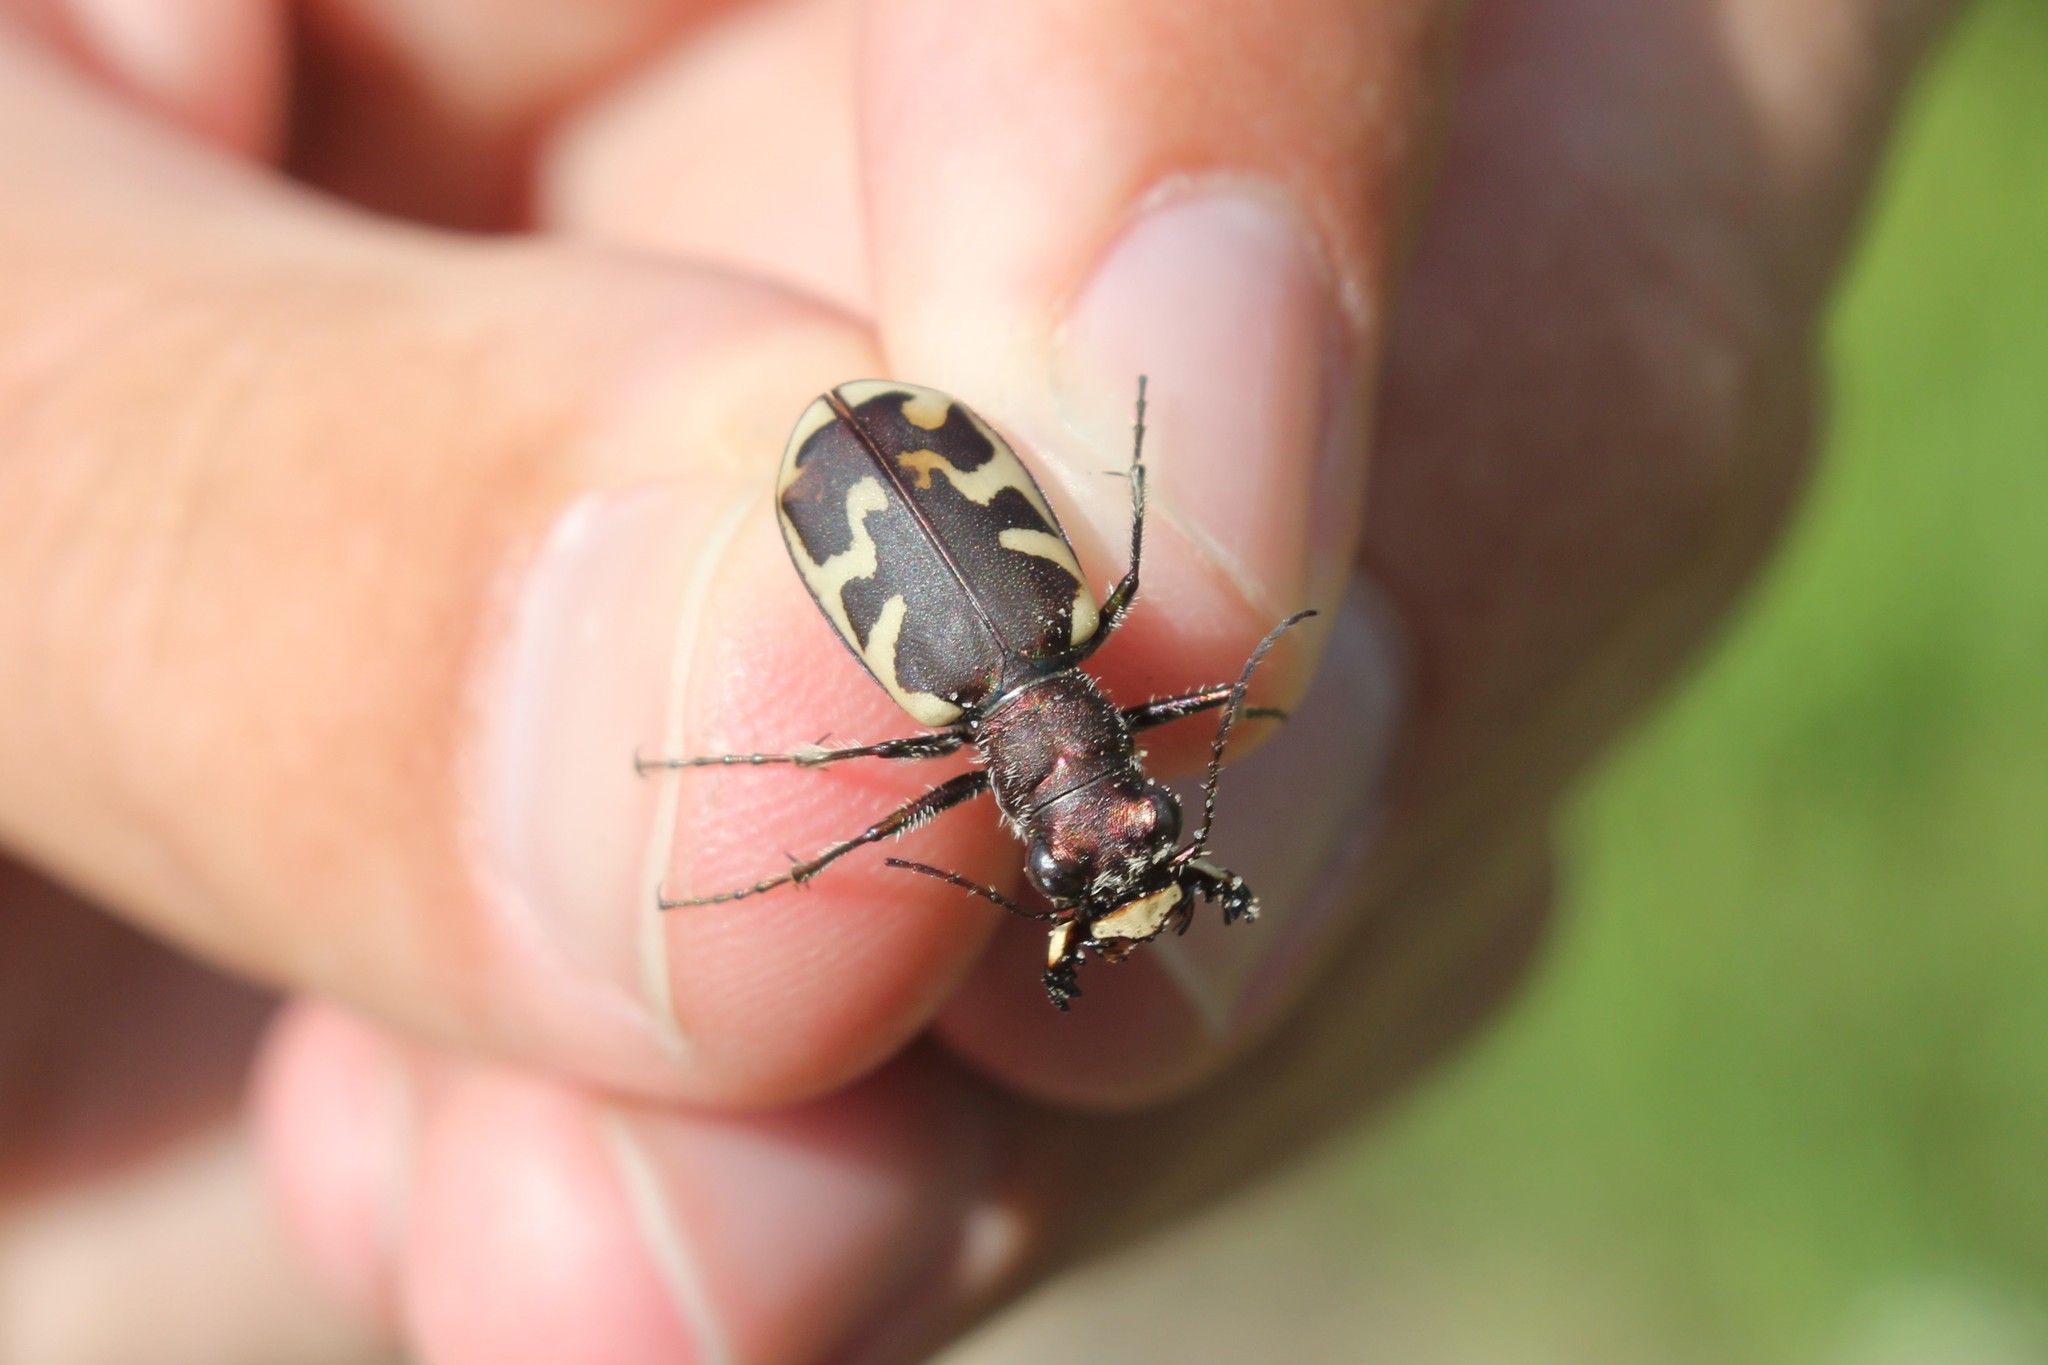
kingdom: Animalia
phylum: Arthropoda
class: Insecta
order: Coleoptera
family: Carabidae
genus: Cicindela
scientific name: Cicindela formosa
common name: Big sand tiger beetle
